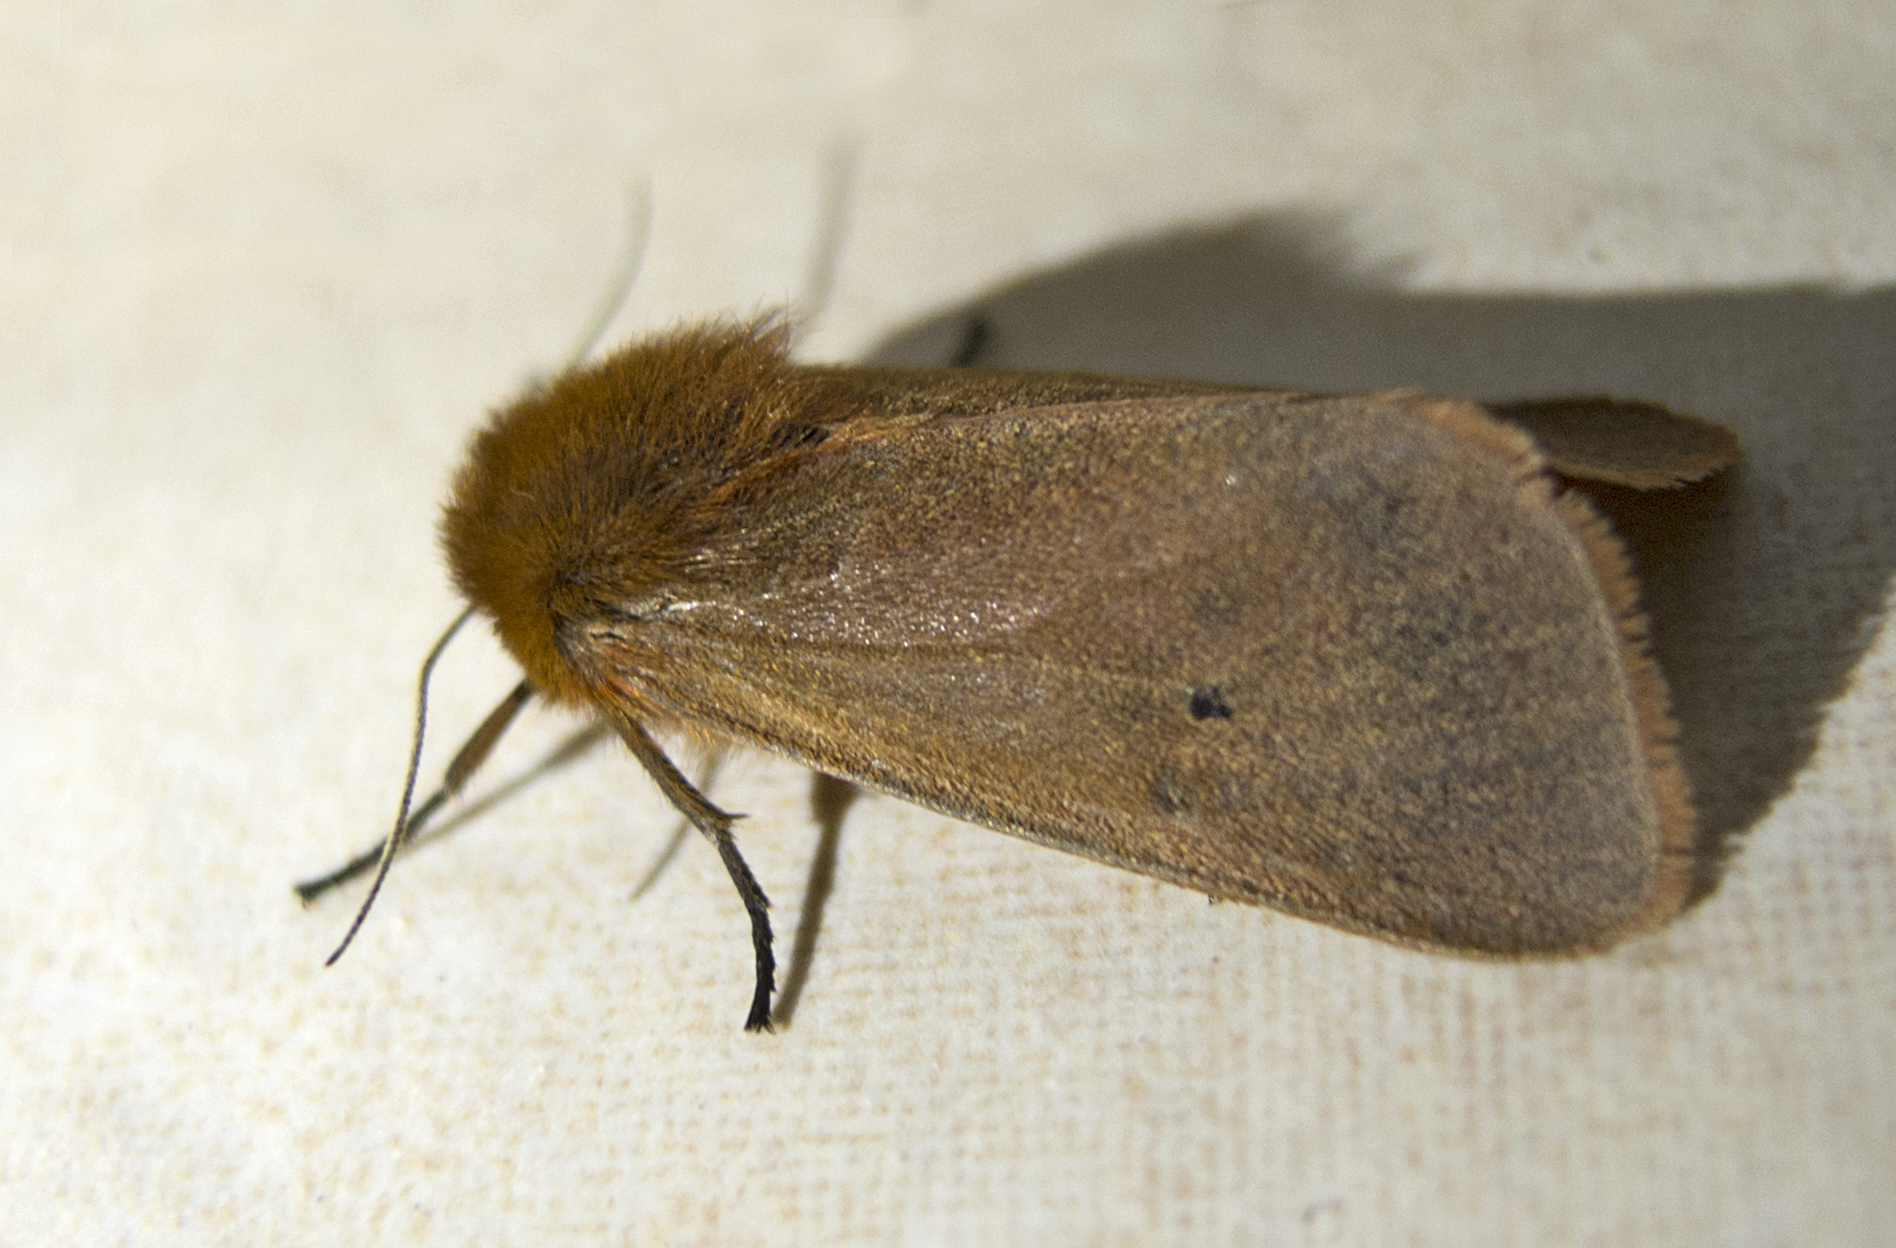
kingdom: Animalia
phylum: Arthropoda
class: Insecta
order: Lepidoptera
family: Erebidae
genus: Phragmatobia
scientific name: Phragmatobia fuliginosa
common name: Ruby tiger
